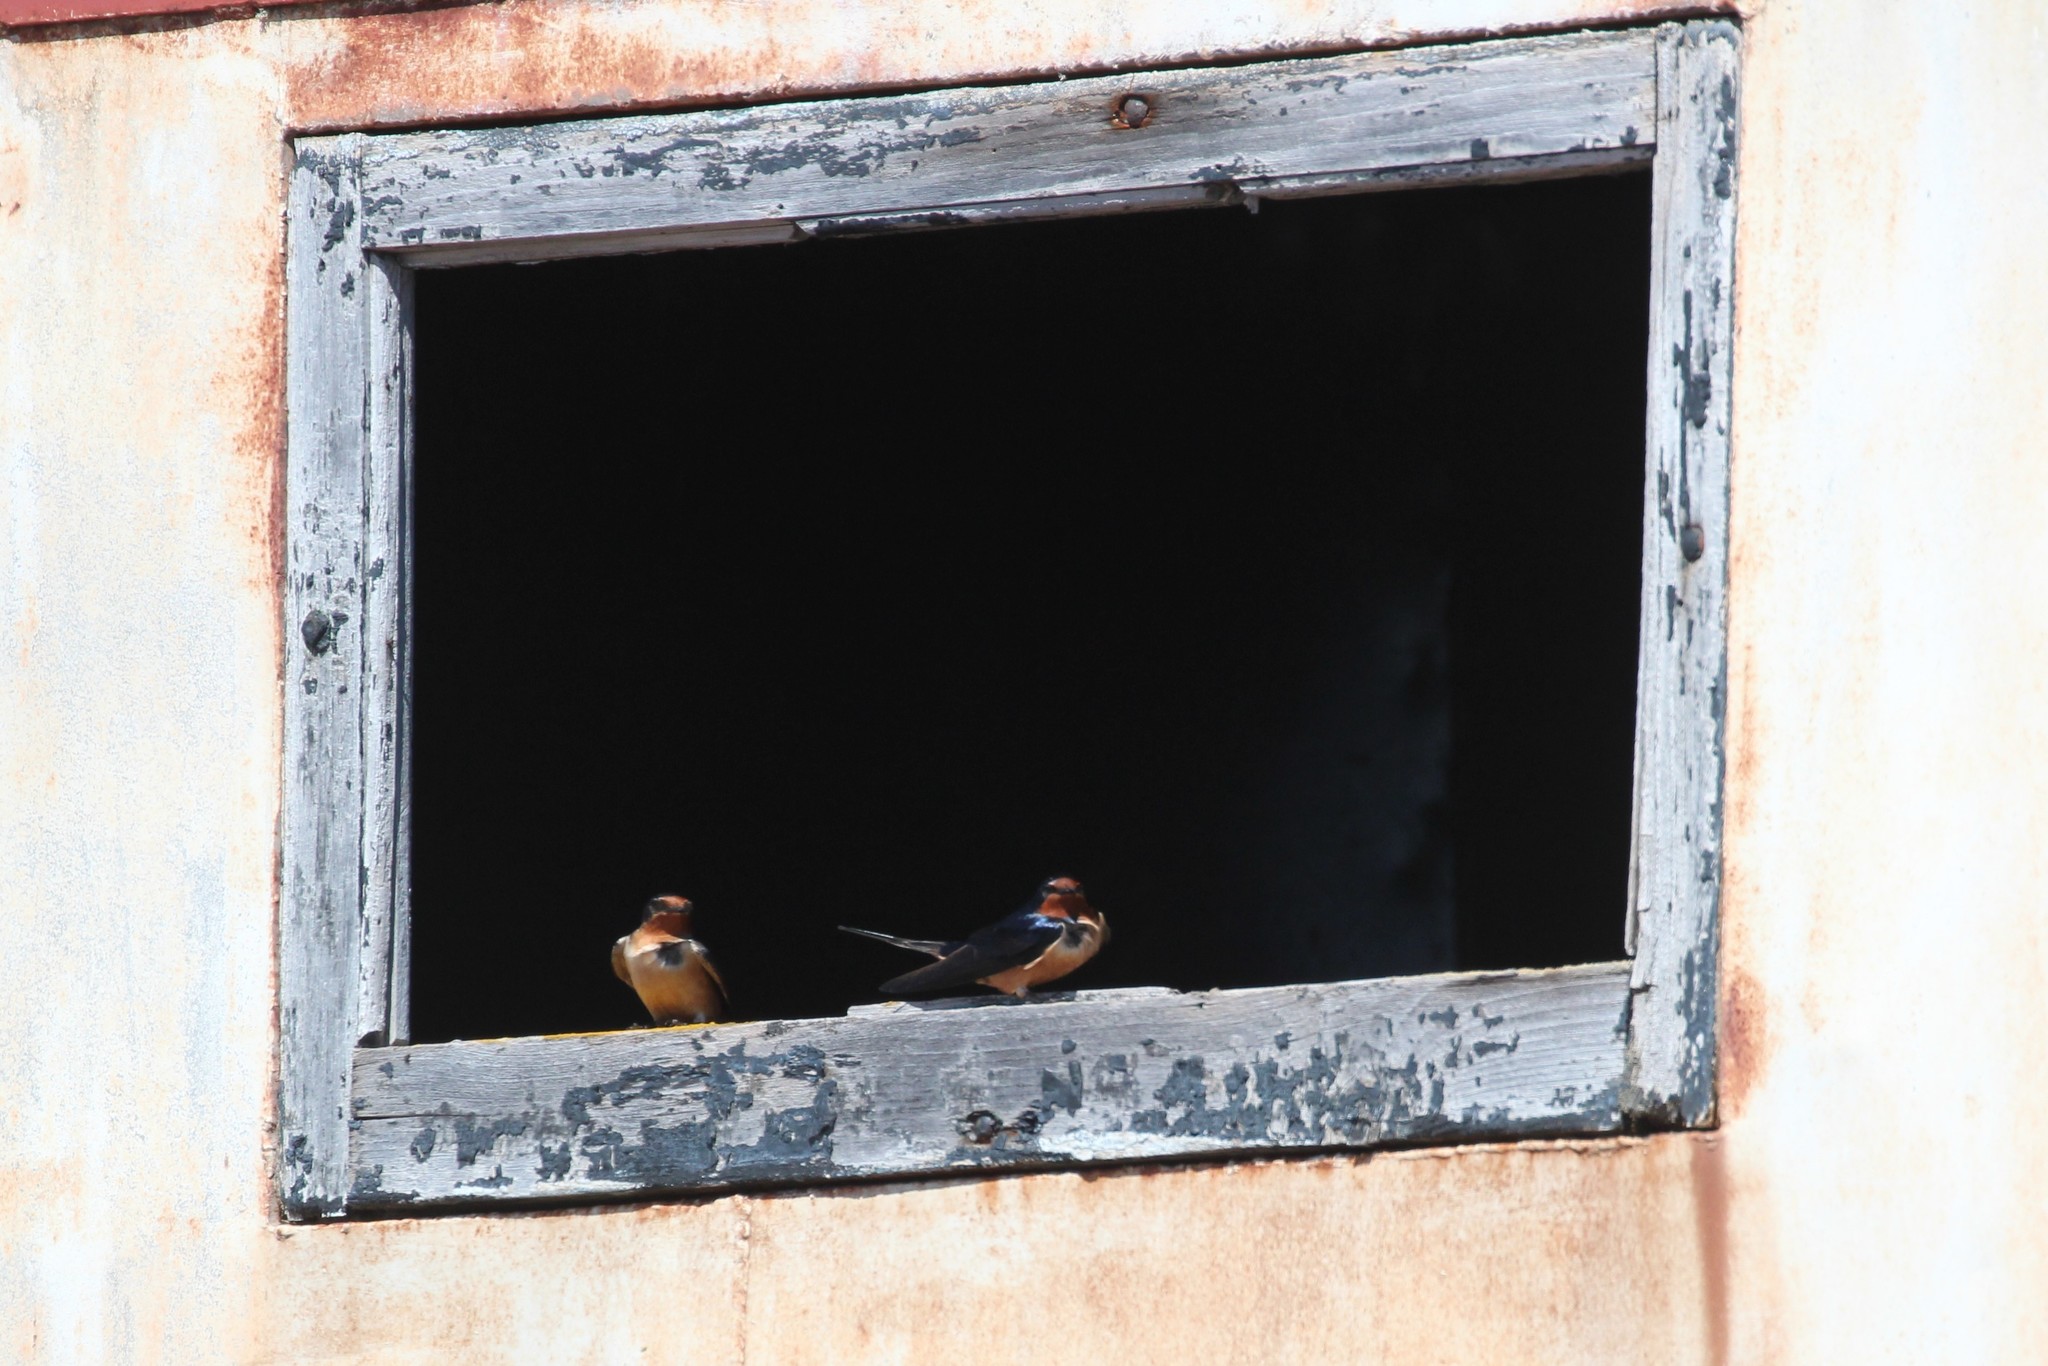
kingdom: Animalia
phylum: Chordata
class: Aves
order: Passeriformes
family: Hirundinidae
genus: Hirundo
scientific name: Hirundo rustica
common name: Barn swallow
